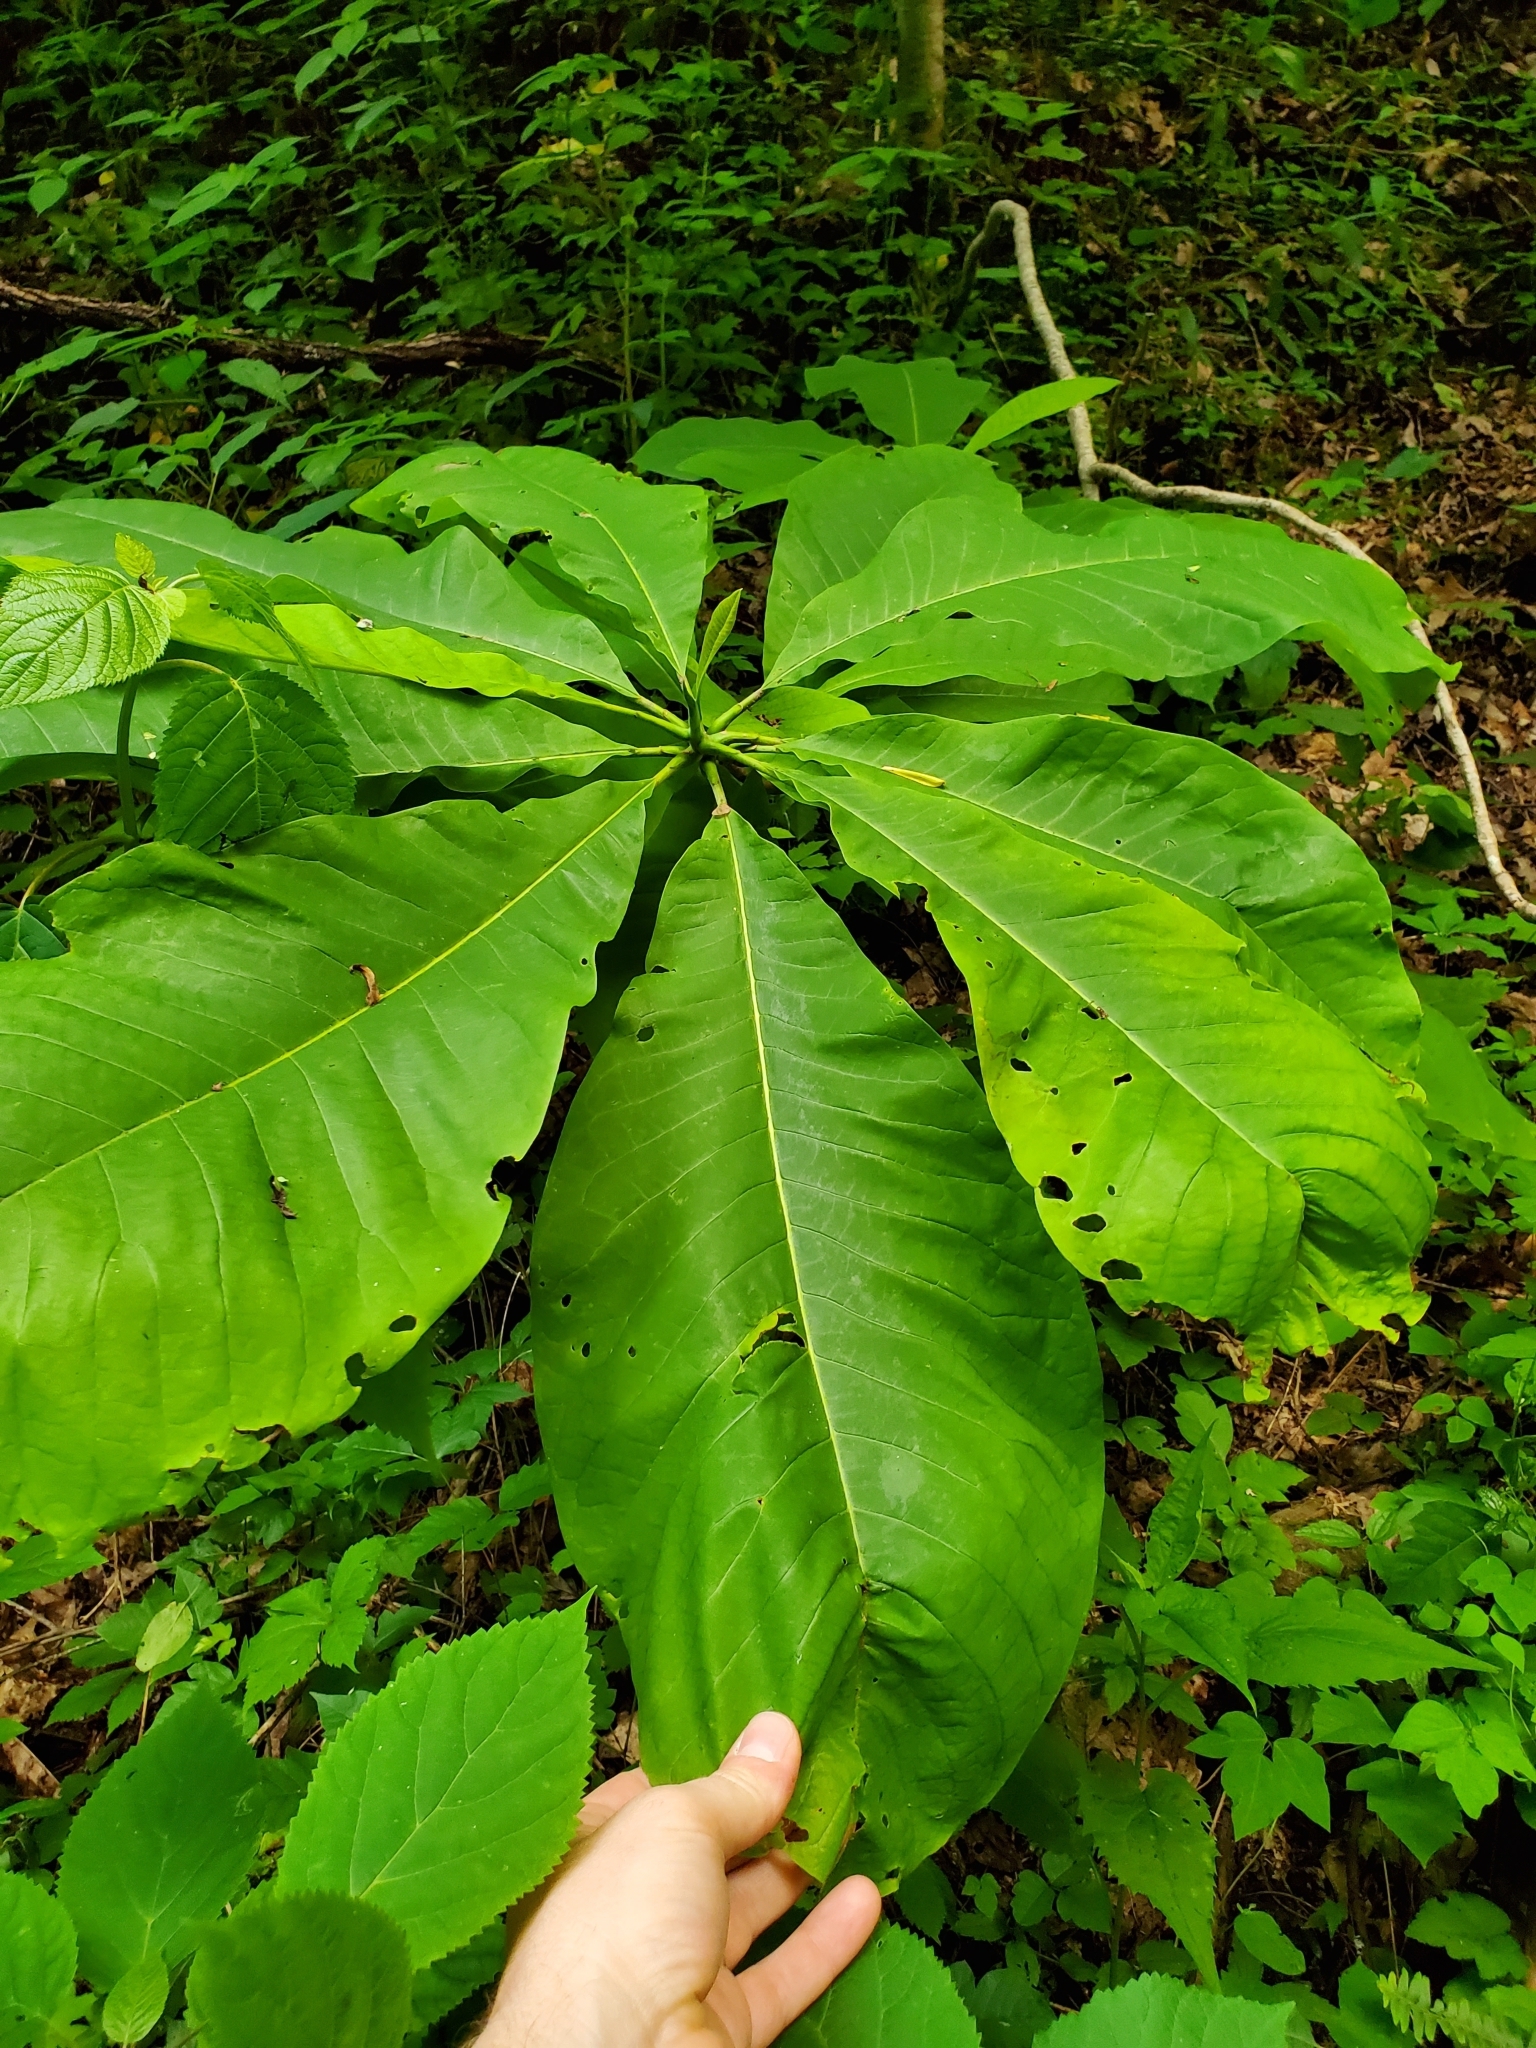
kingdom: Plantae
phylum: Tracheophyta
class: Magnoliopsida
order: Magnoliales
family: Magnoliaceae
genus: Magnolia
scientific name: Magnolia tripetala
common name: Umbrella magnolia
